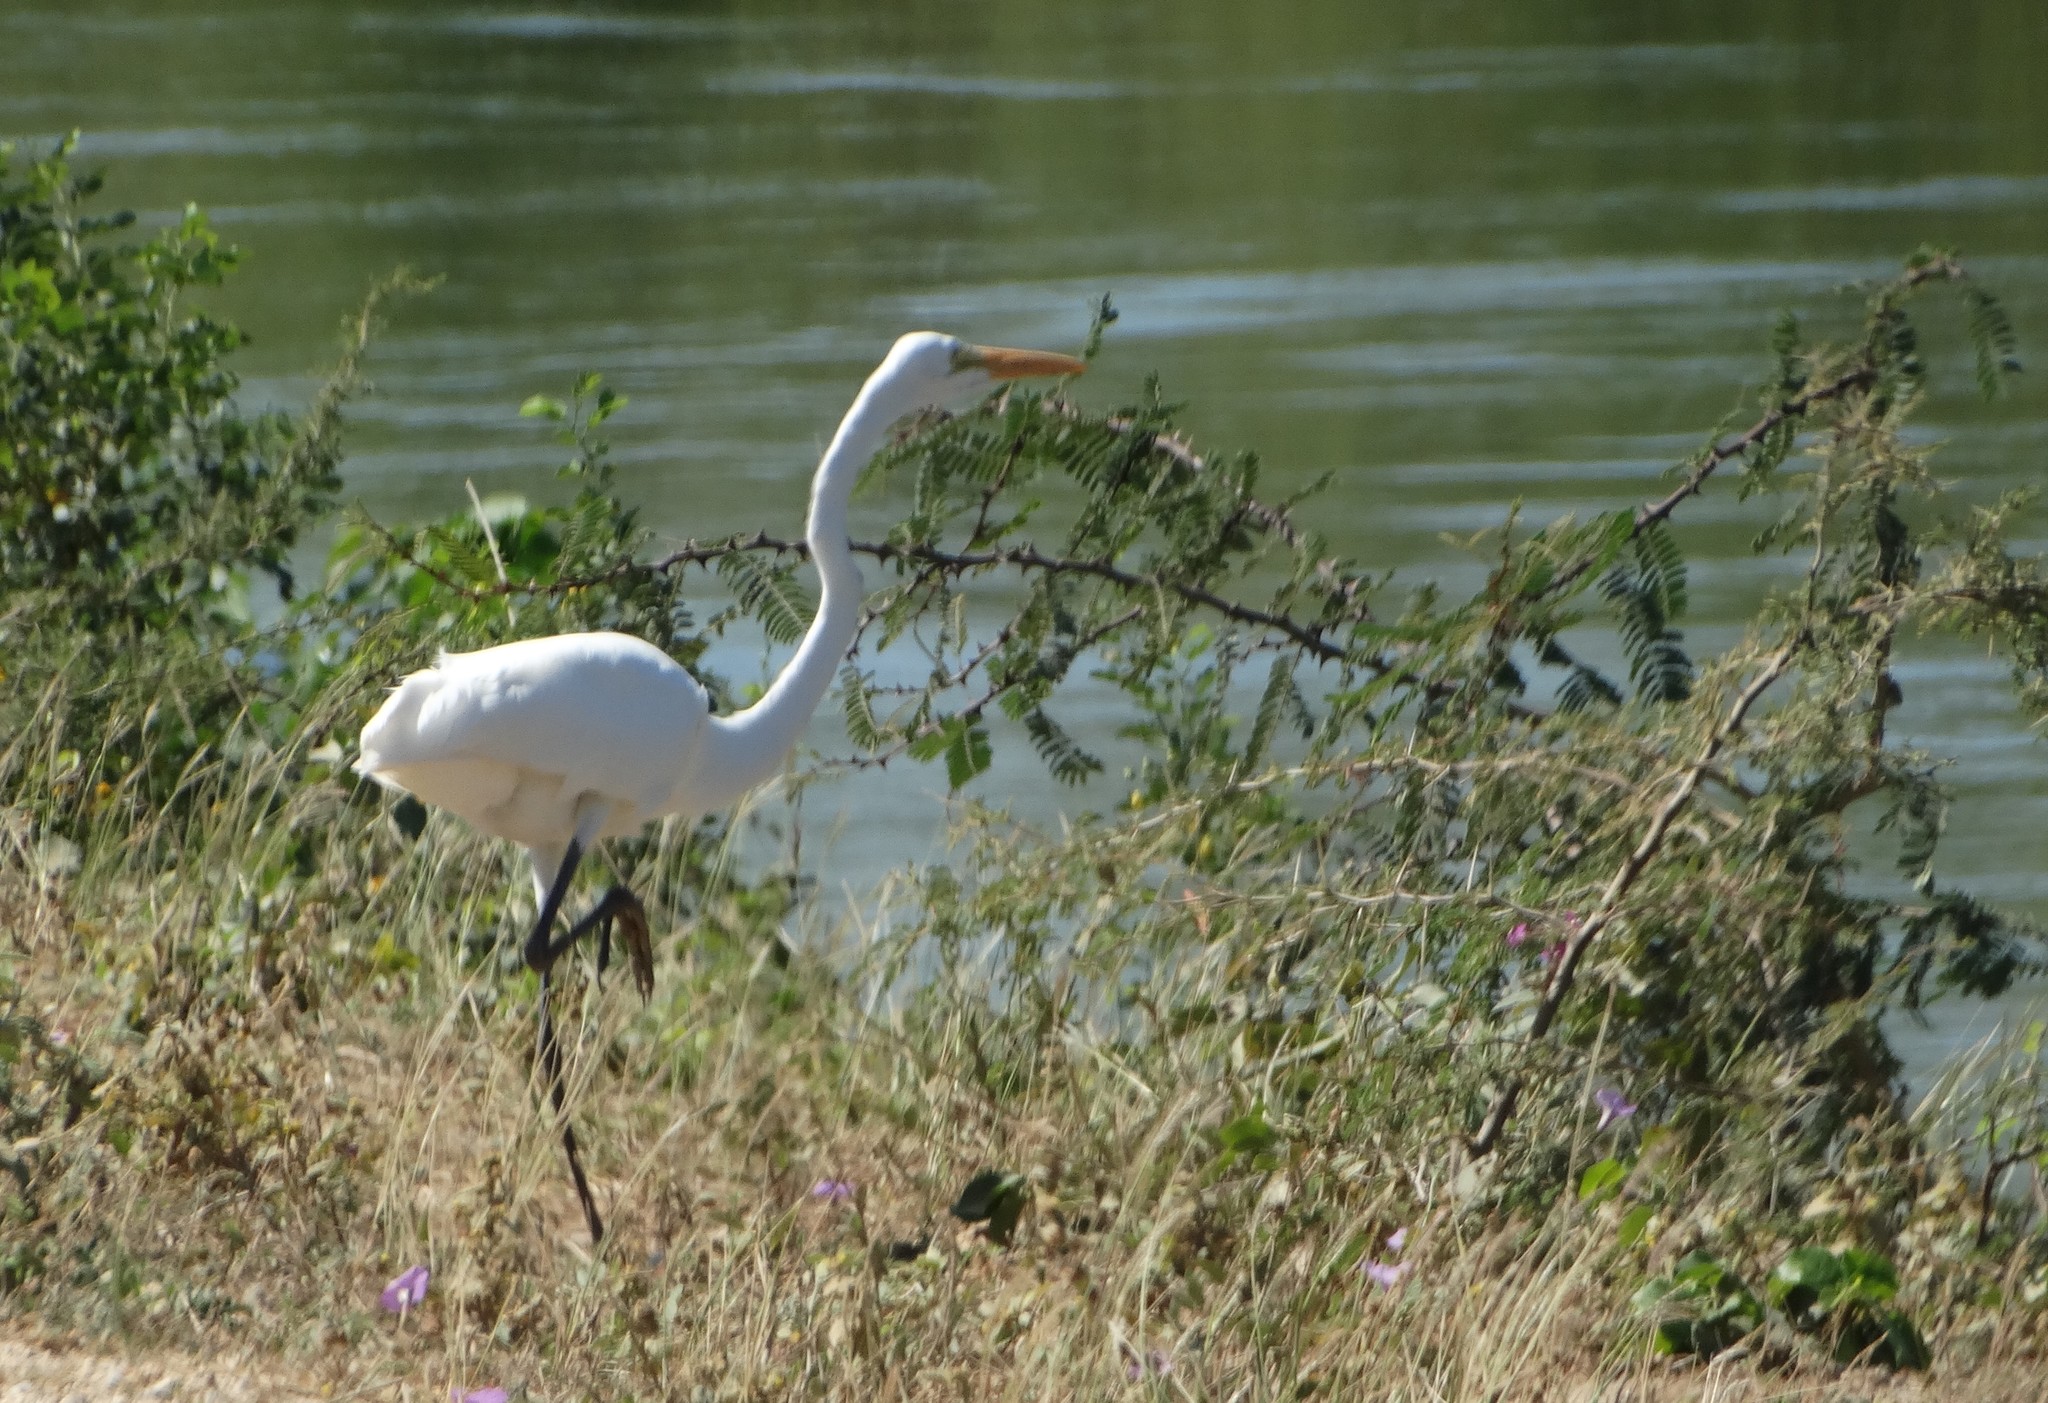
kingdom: Animalia
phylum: Chordata
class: Aves
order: Pelecaniformes
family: Ardeidae
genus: Ardea
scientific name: Ardea alba
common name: Great egret
